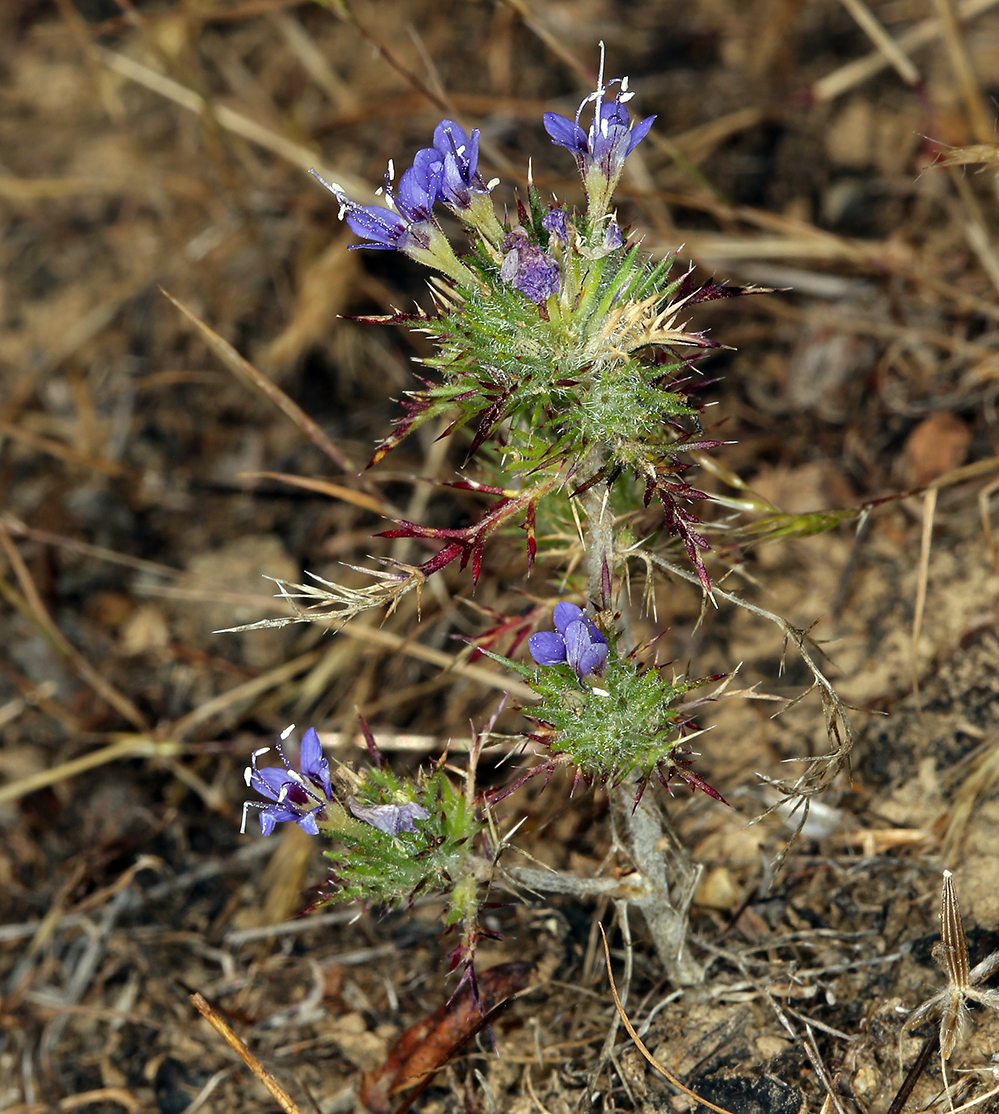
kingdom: Plantae
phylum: Tracheophyta
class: Magnoliopsida
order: Ericales
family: Polemoniaceae
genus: Navarretia
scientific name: Navarretia jepsonii
